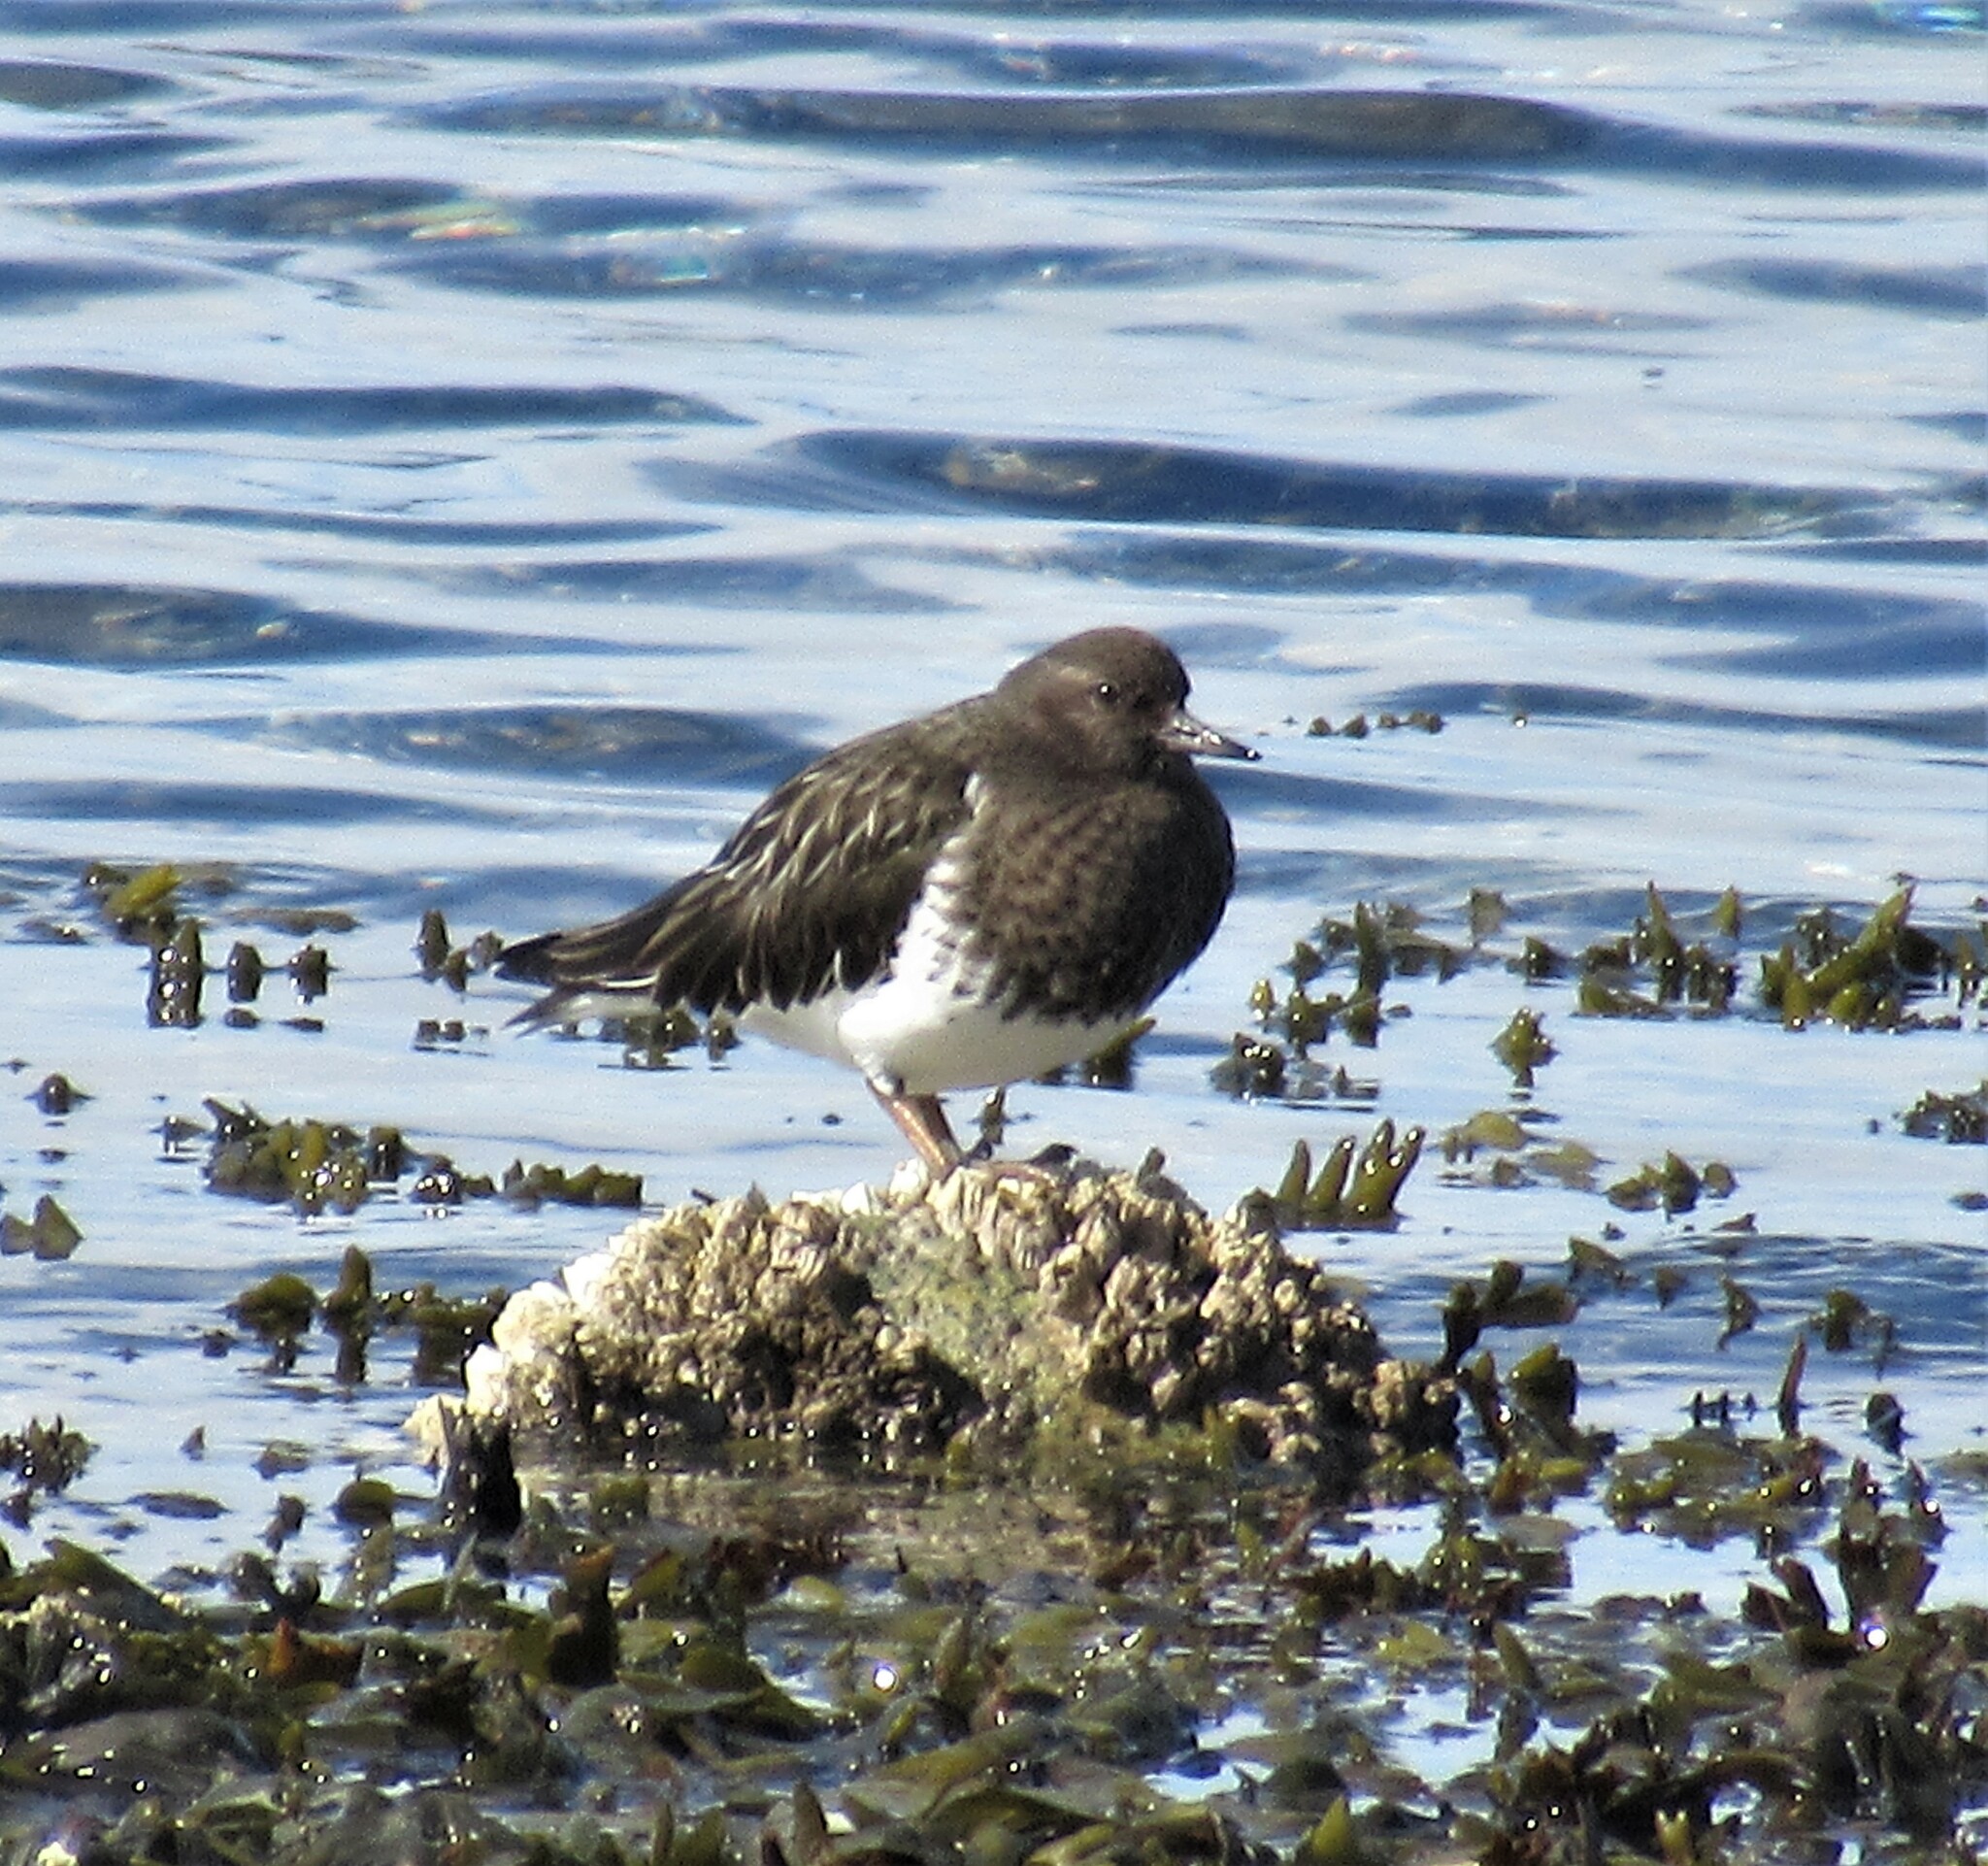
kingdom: Animalia
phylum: Chordata
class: Aves
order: Charadriiformes
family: Scolopacidae
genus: Arenaria
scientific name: Arenaria melanocephala
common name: Black turnstone
